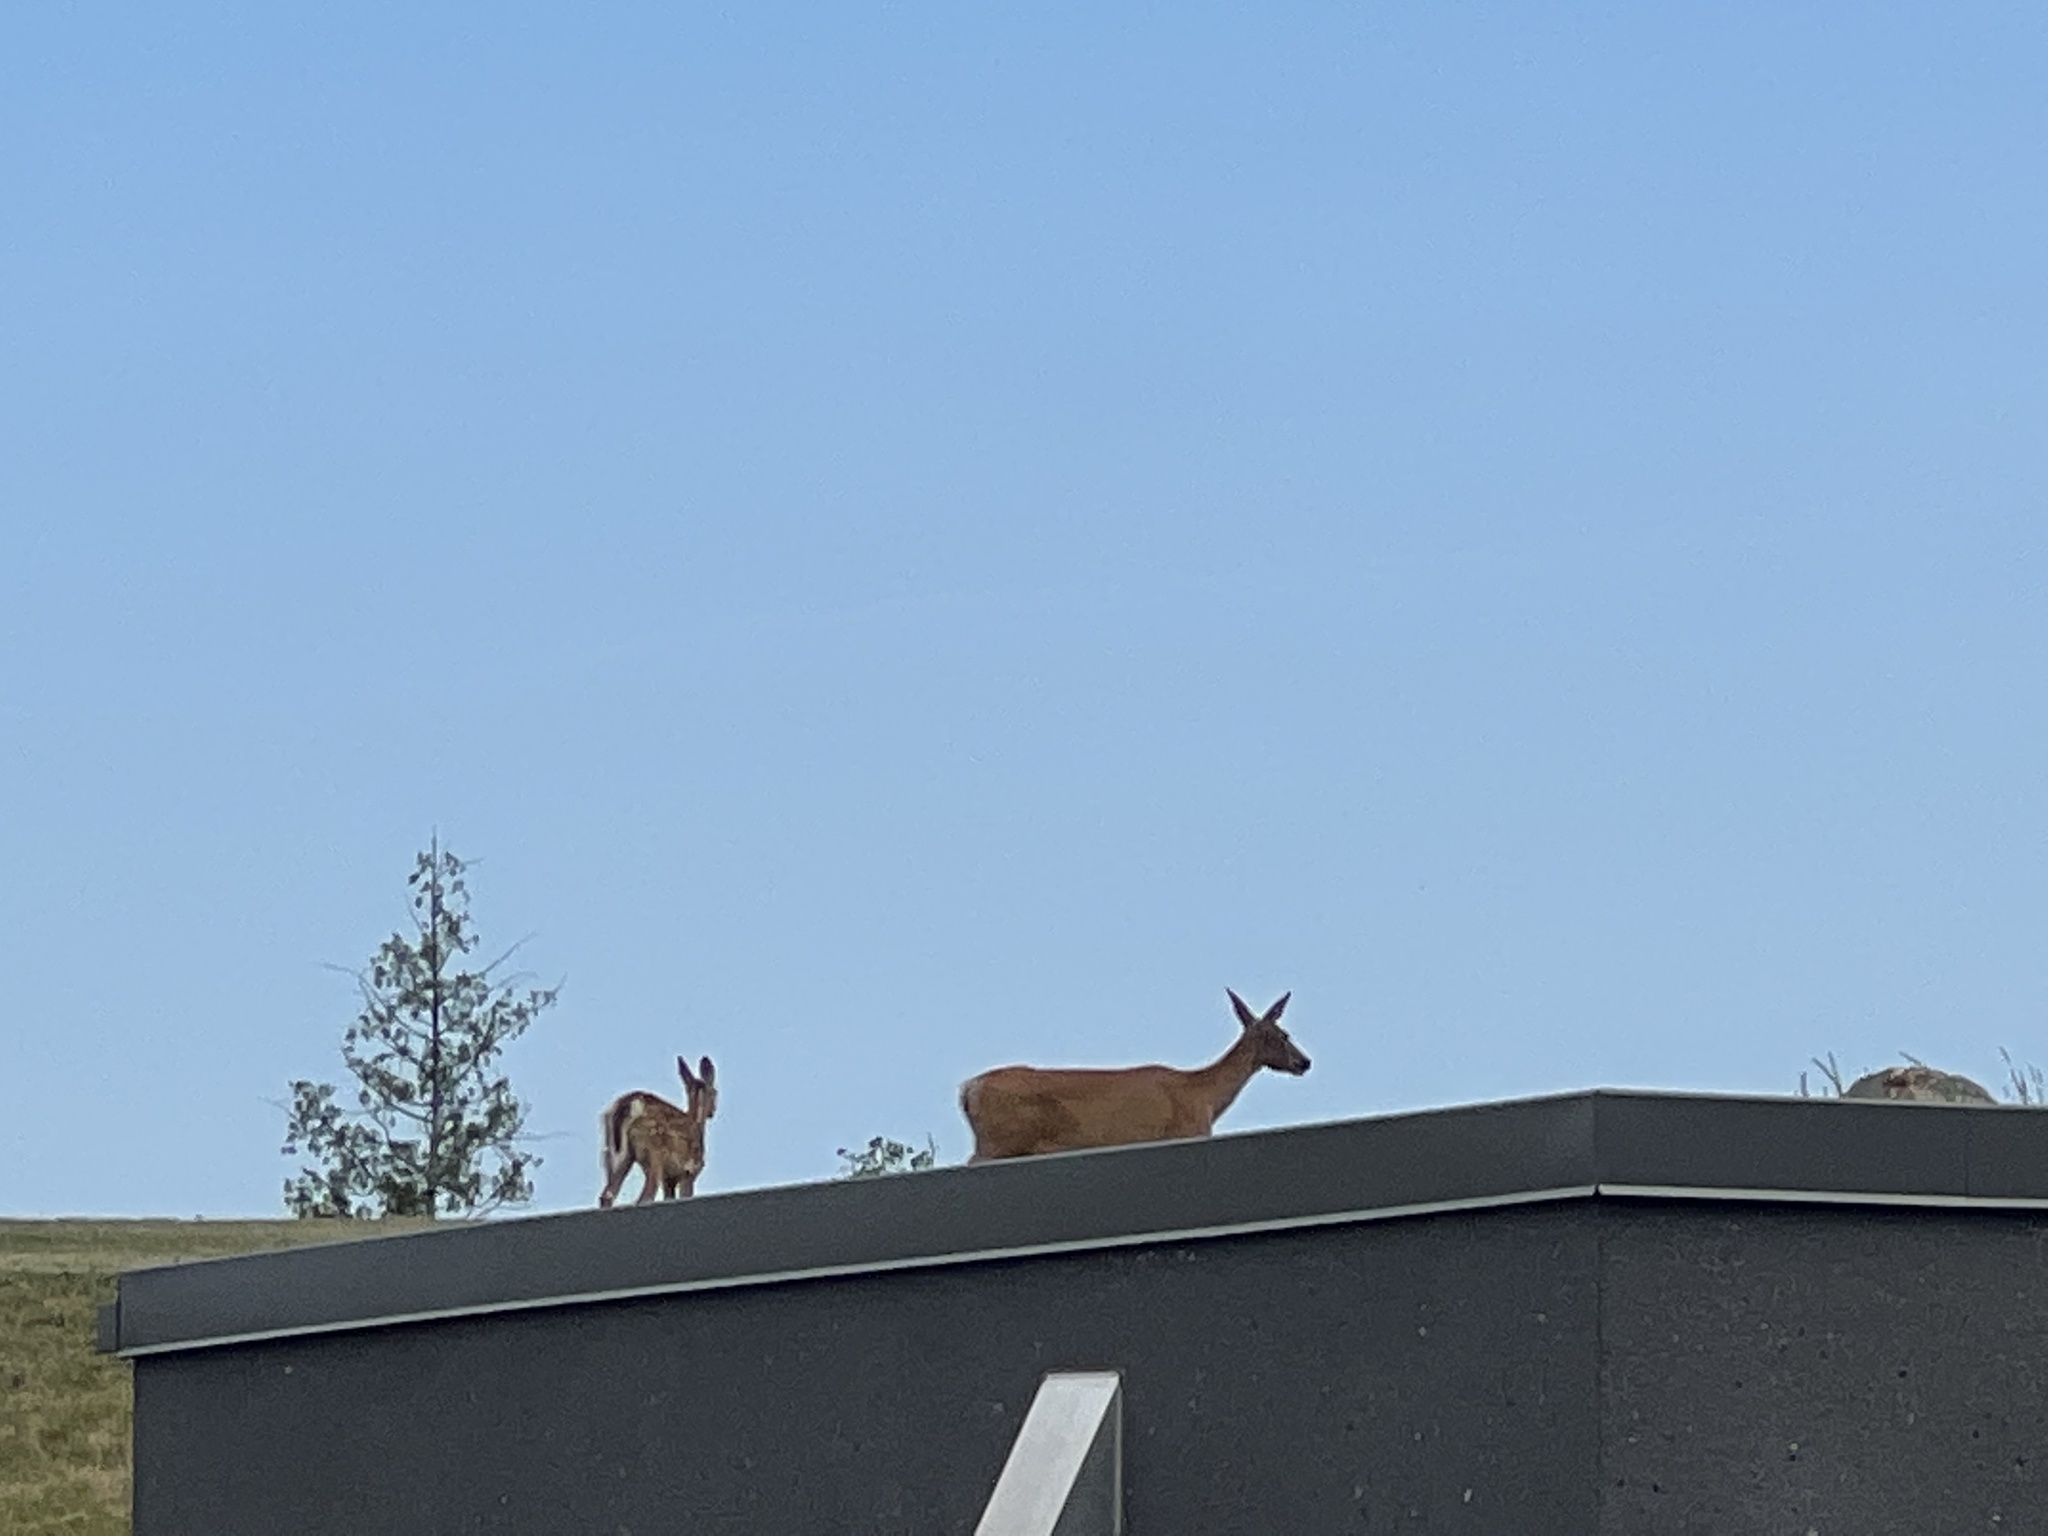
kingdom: Animalia
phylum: Chordata
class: Mammalia
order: Artiodactyla
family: Cervidae
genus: Odocoileus
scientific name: Odocoileus virginianus
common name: White-tailed deer
